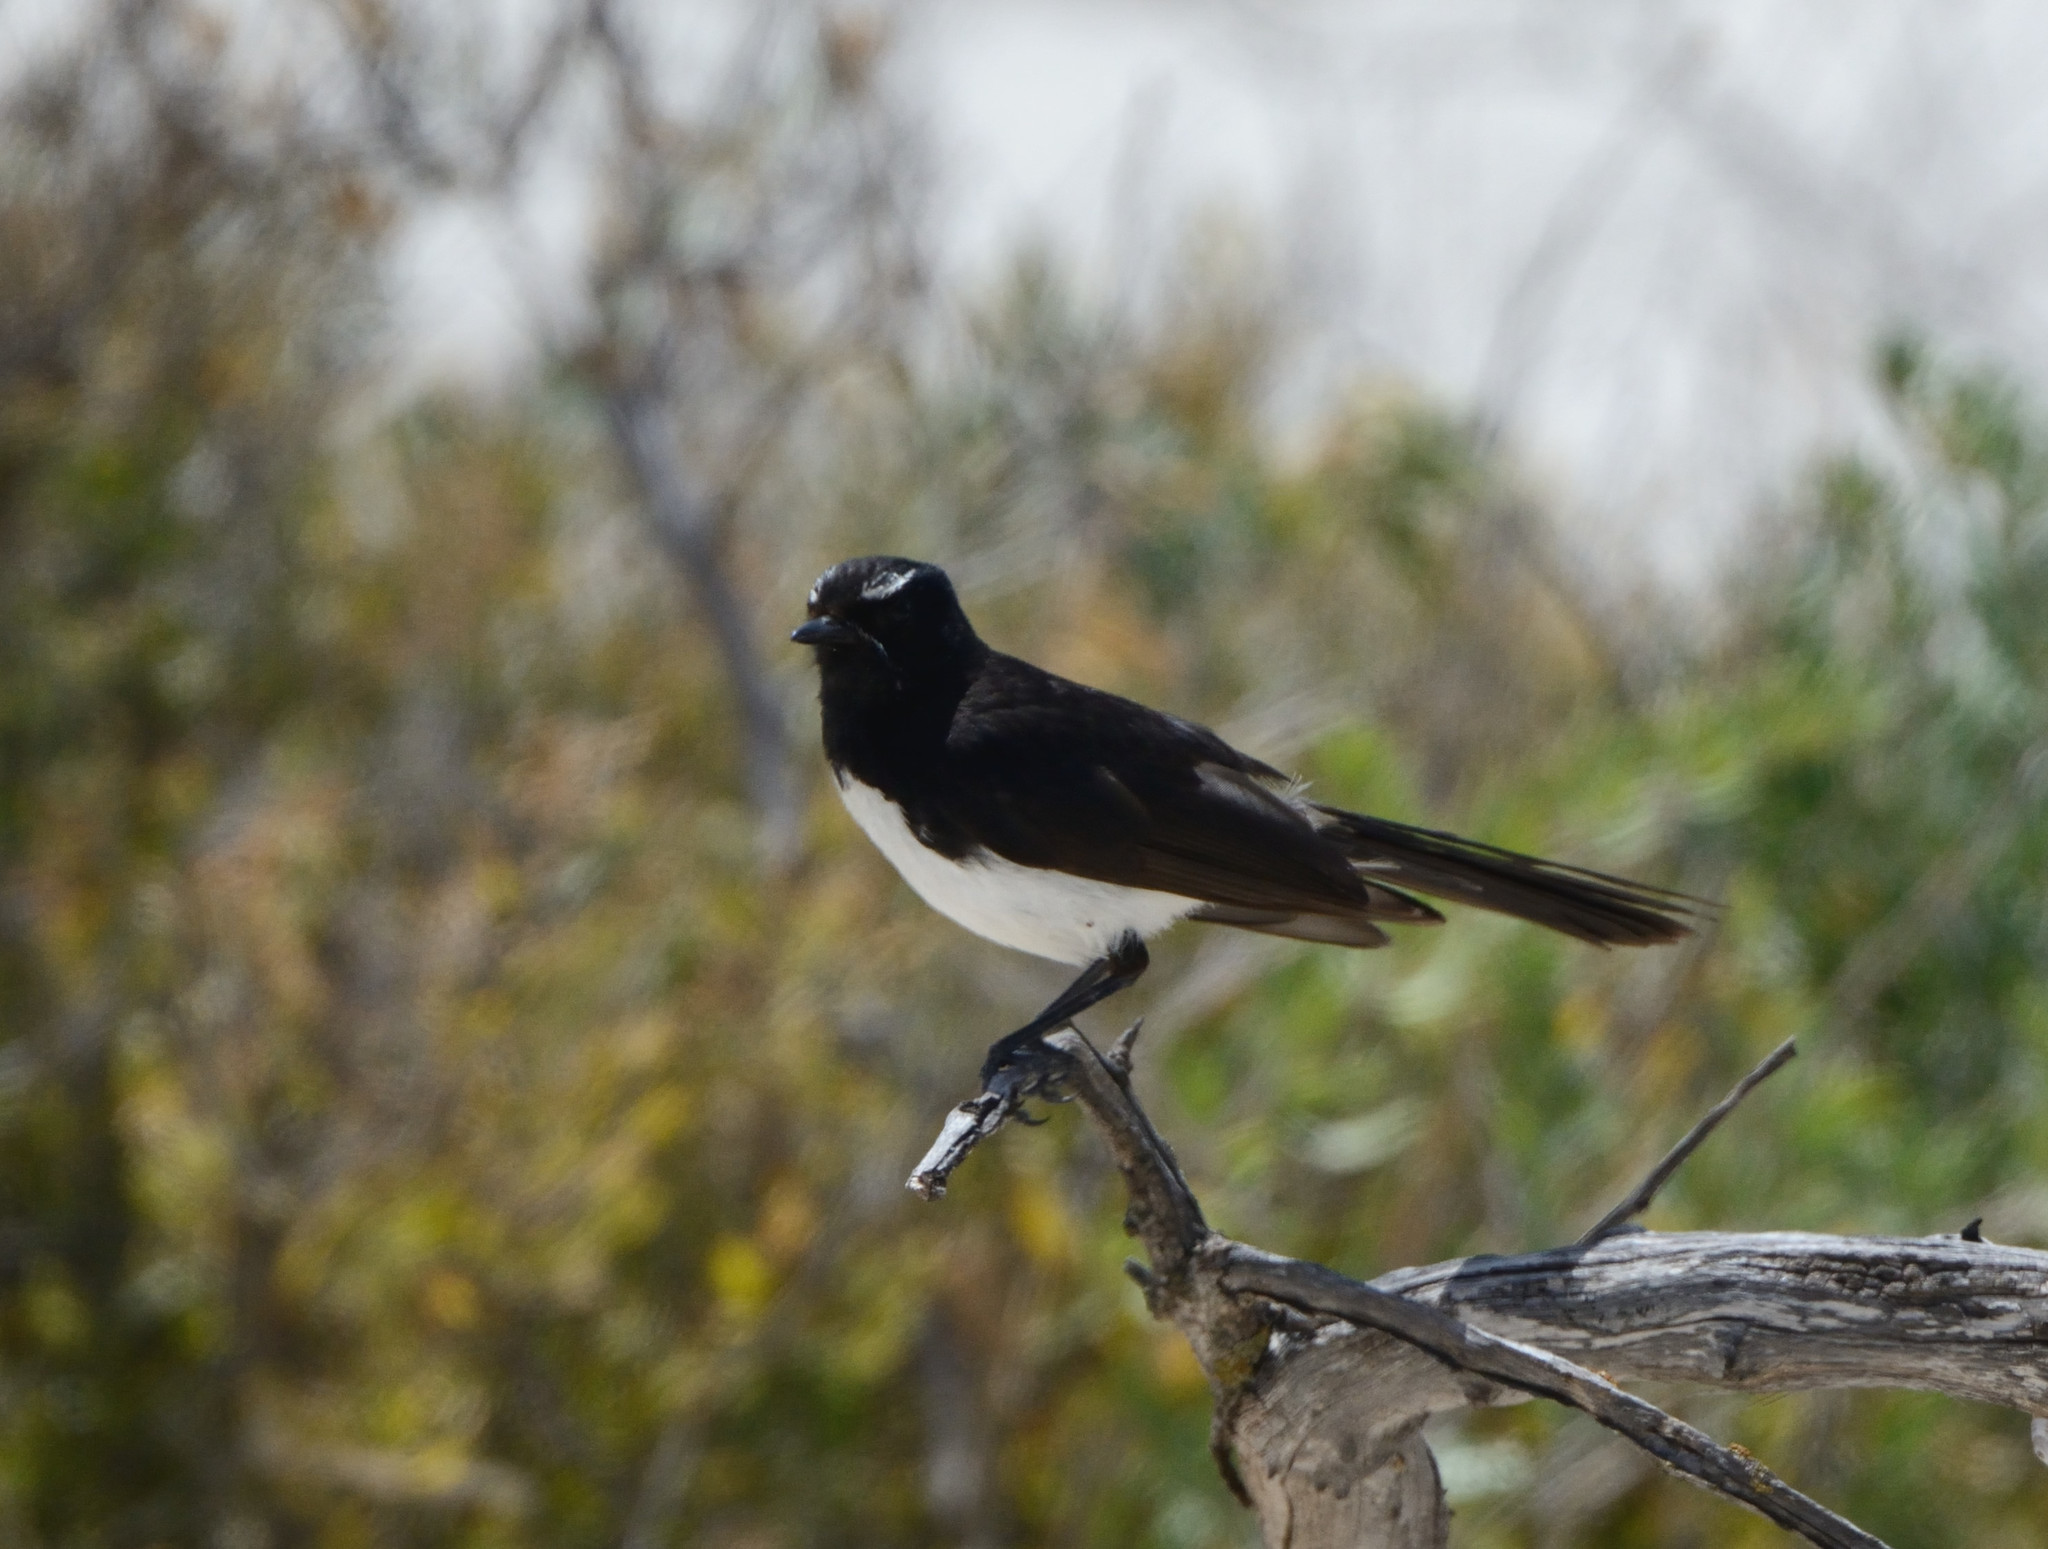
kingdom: Animalia
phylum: Chordata
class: Aves
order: Passeriformes
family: Rhipiduridae
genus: Rhipidura
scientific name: Rhipidura leucophrys
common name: Willie wagtail
